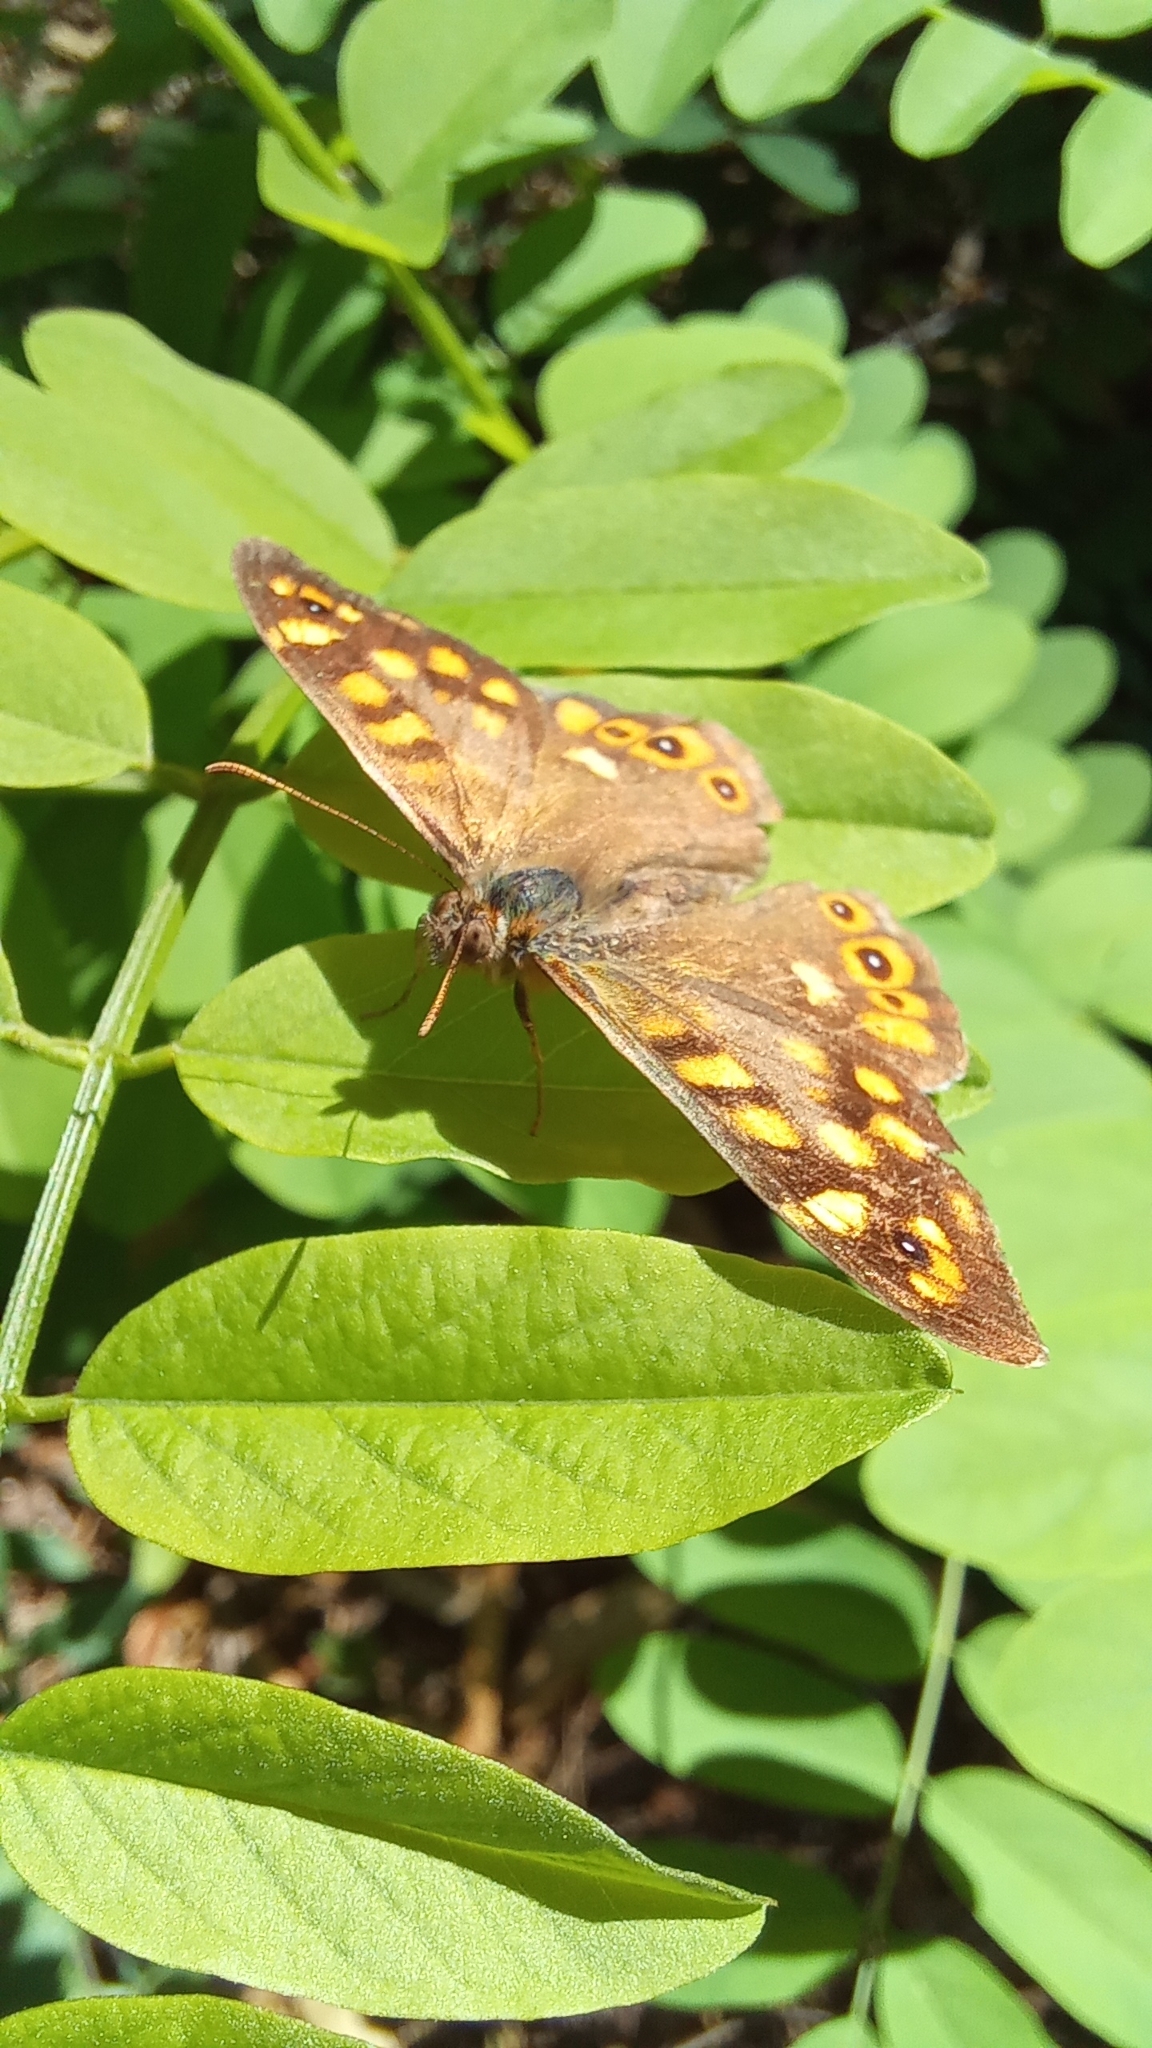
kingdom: Animalia
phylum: Arthropoda
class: Insecta
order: Lepidoptera
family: Nymphalidae
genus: Pararge
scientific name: Pararge aegeria
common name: Speckled wood
